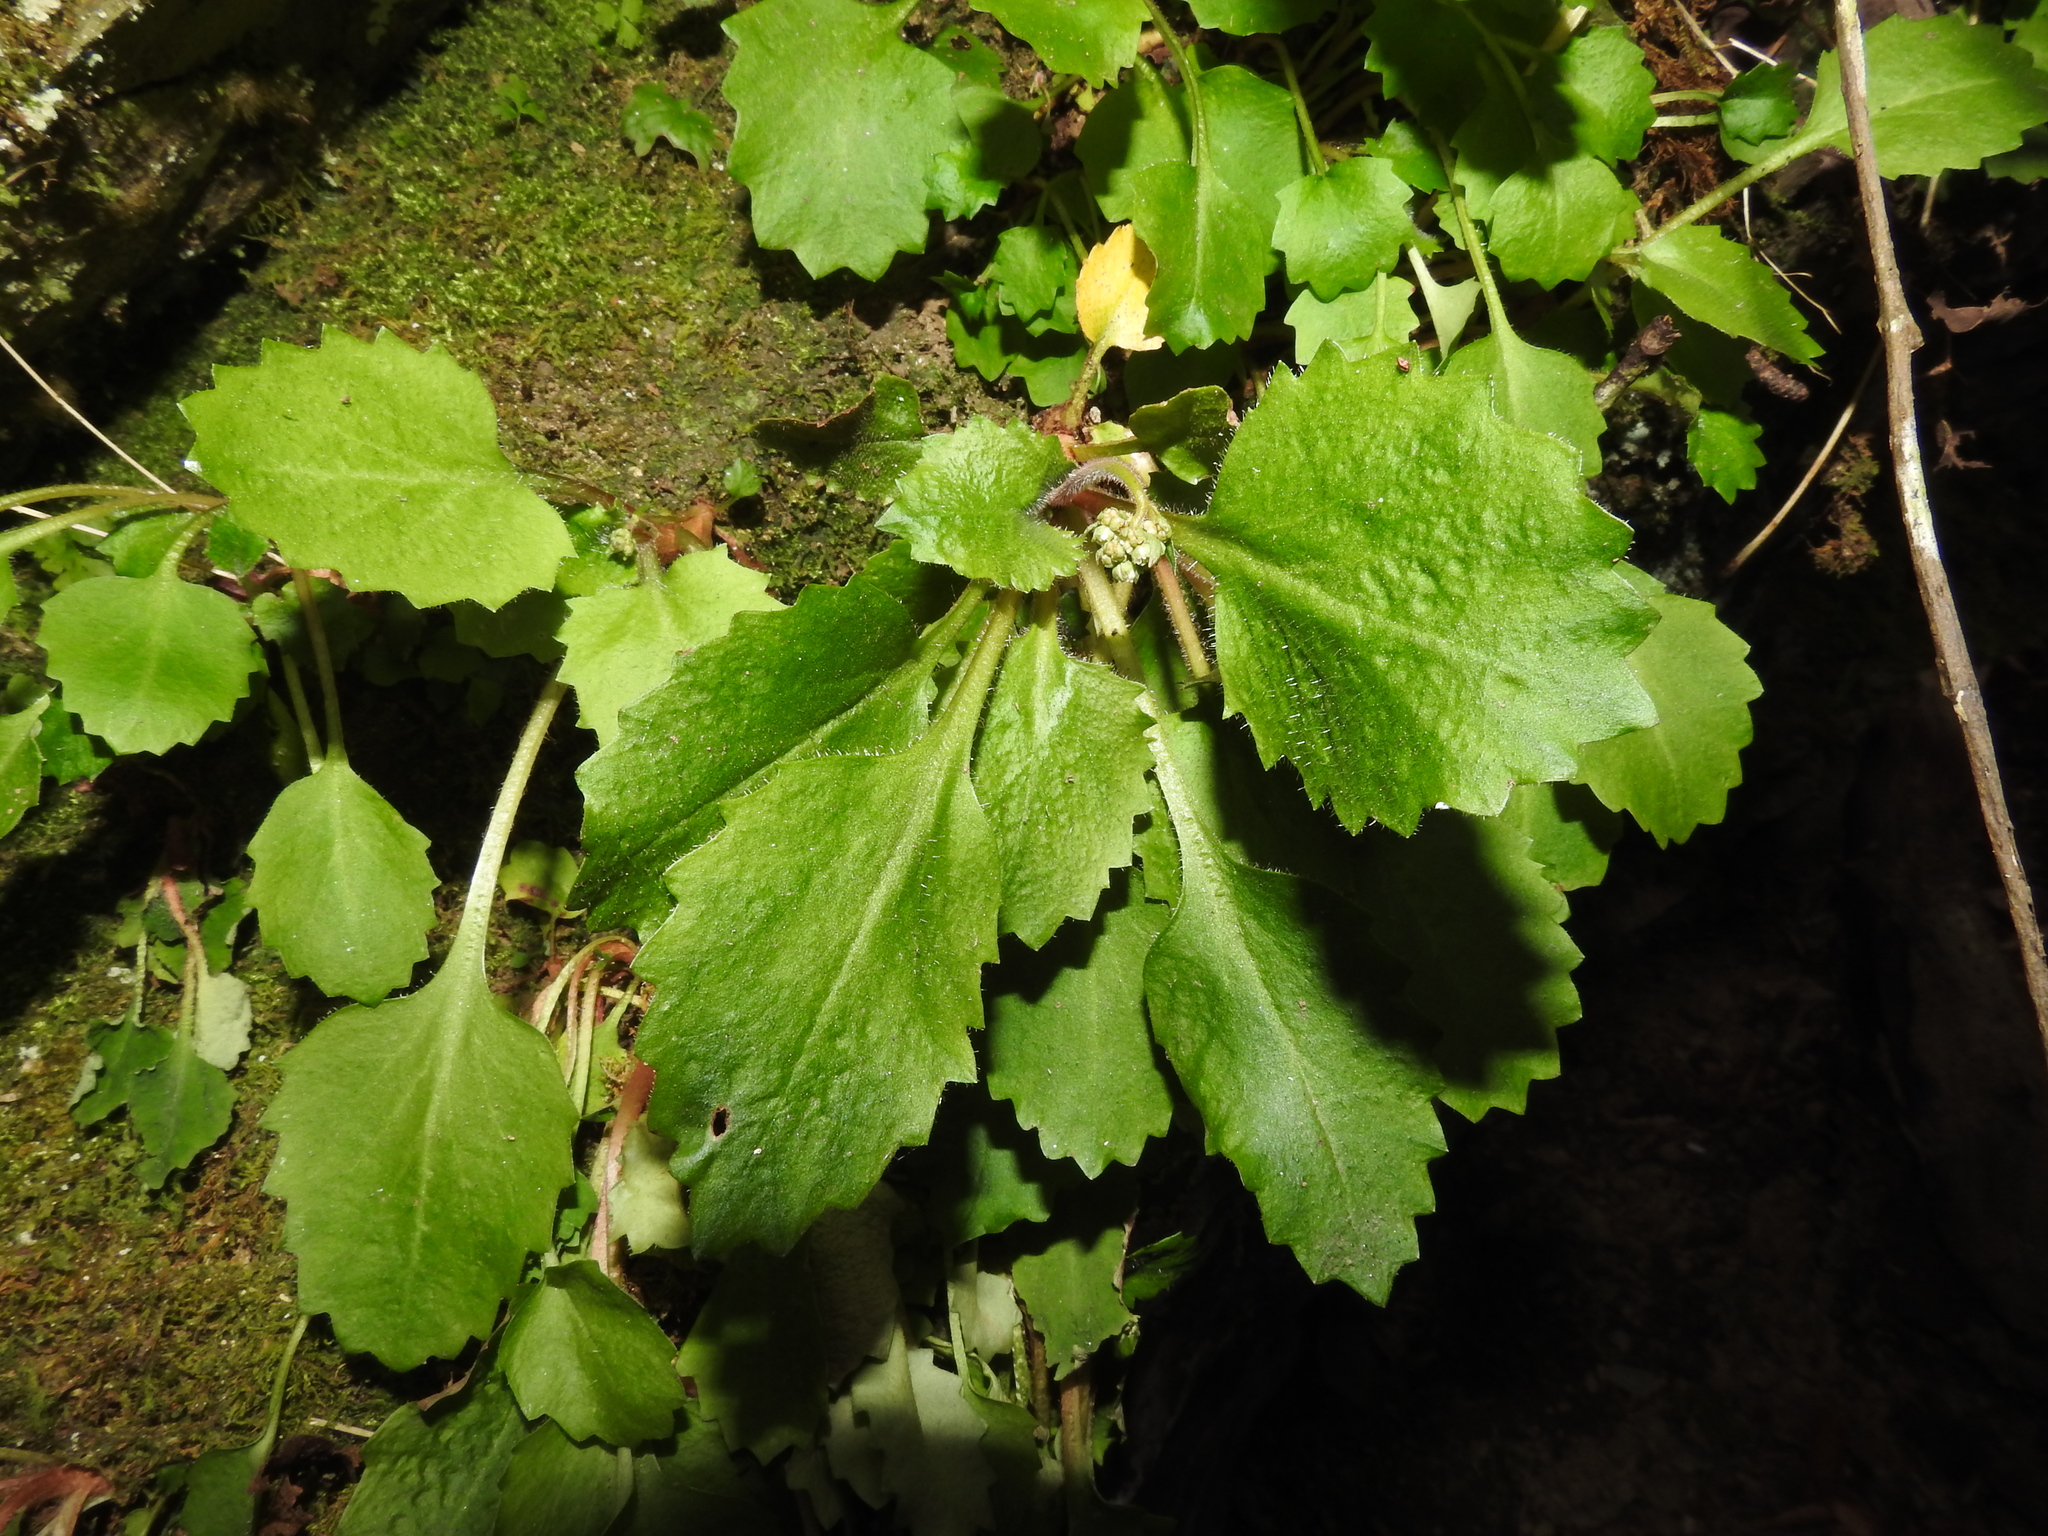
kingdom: Plantae
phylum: Tracheophyta
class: Magnoliopsida
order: Saxifragales
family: Saxifragaceae
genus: Micranthes
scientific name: Micranthes petiolaris
